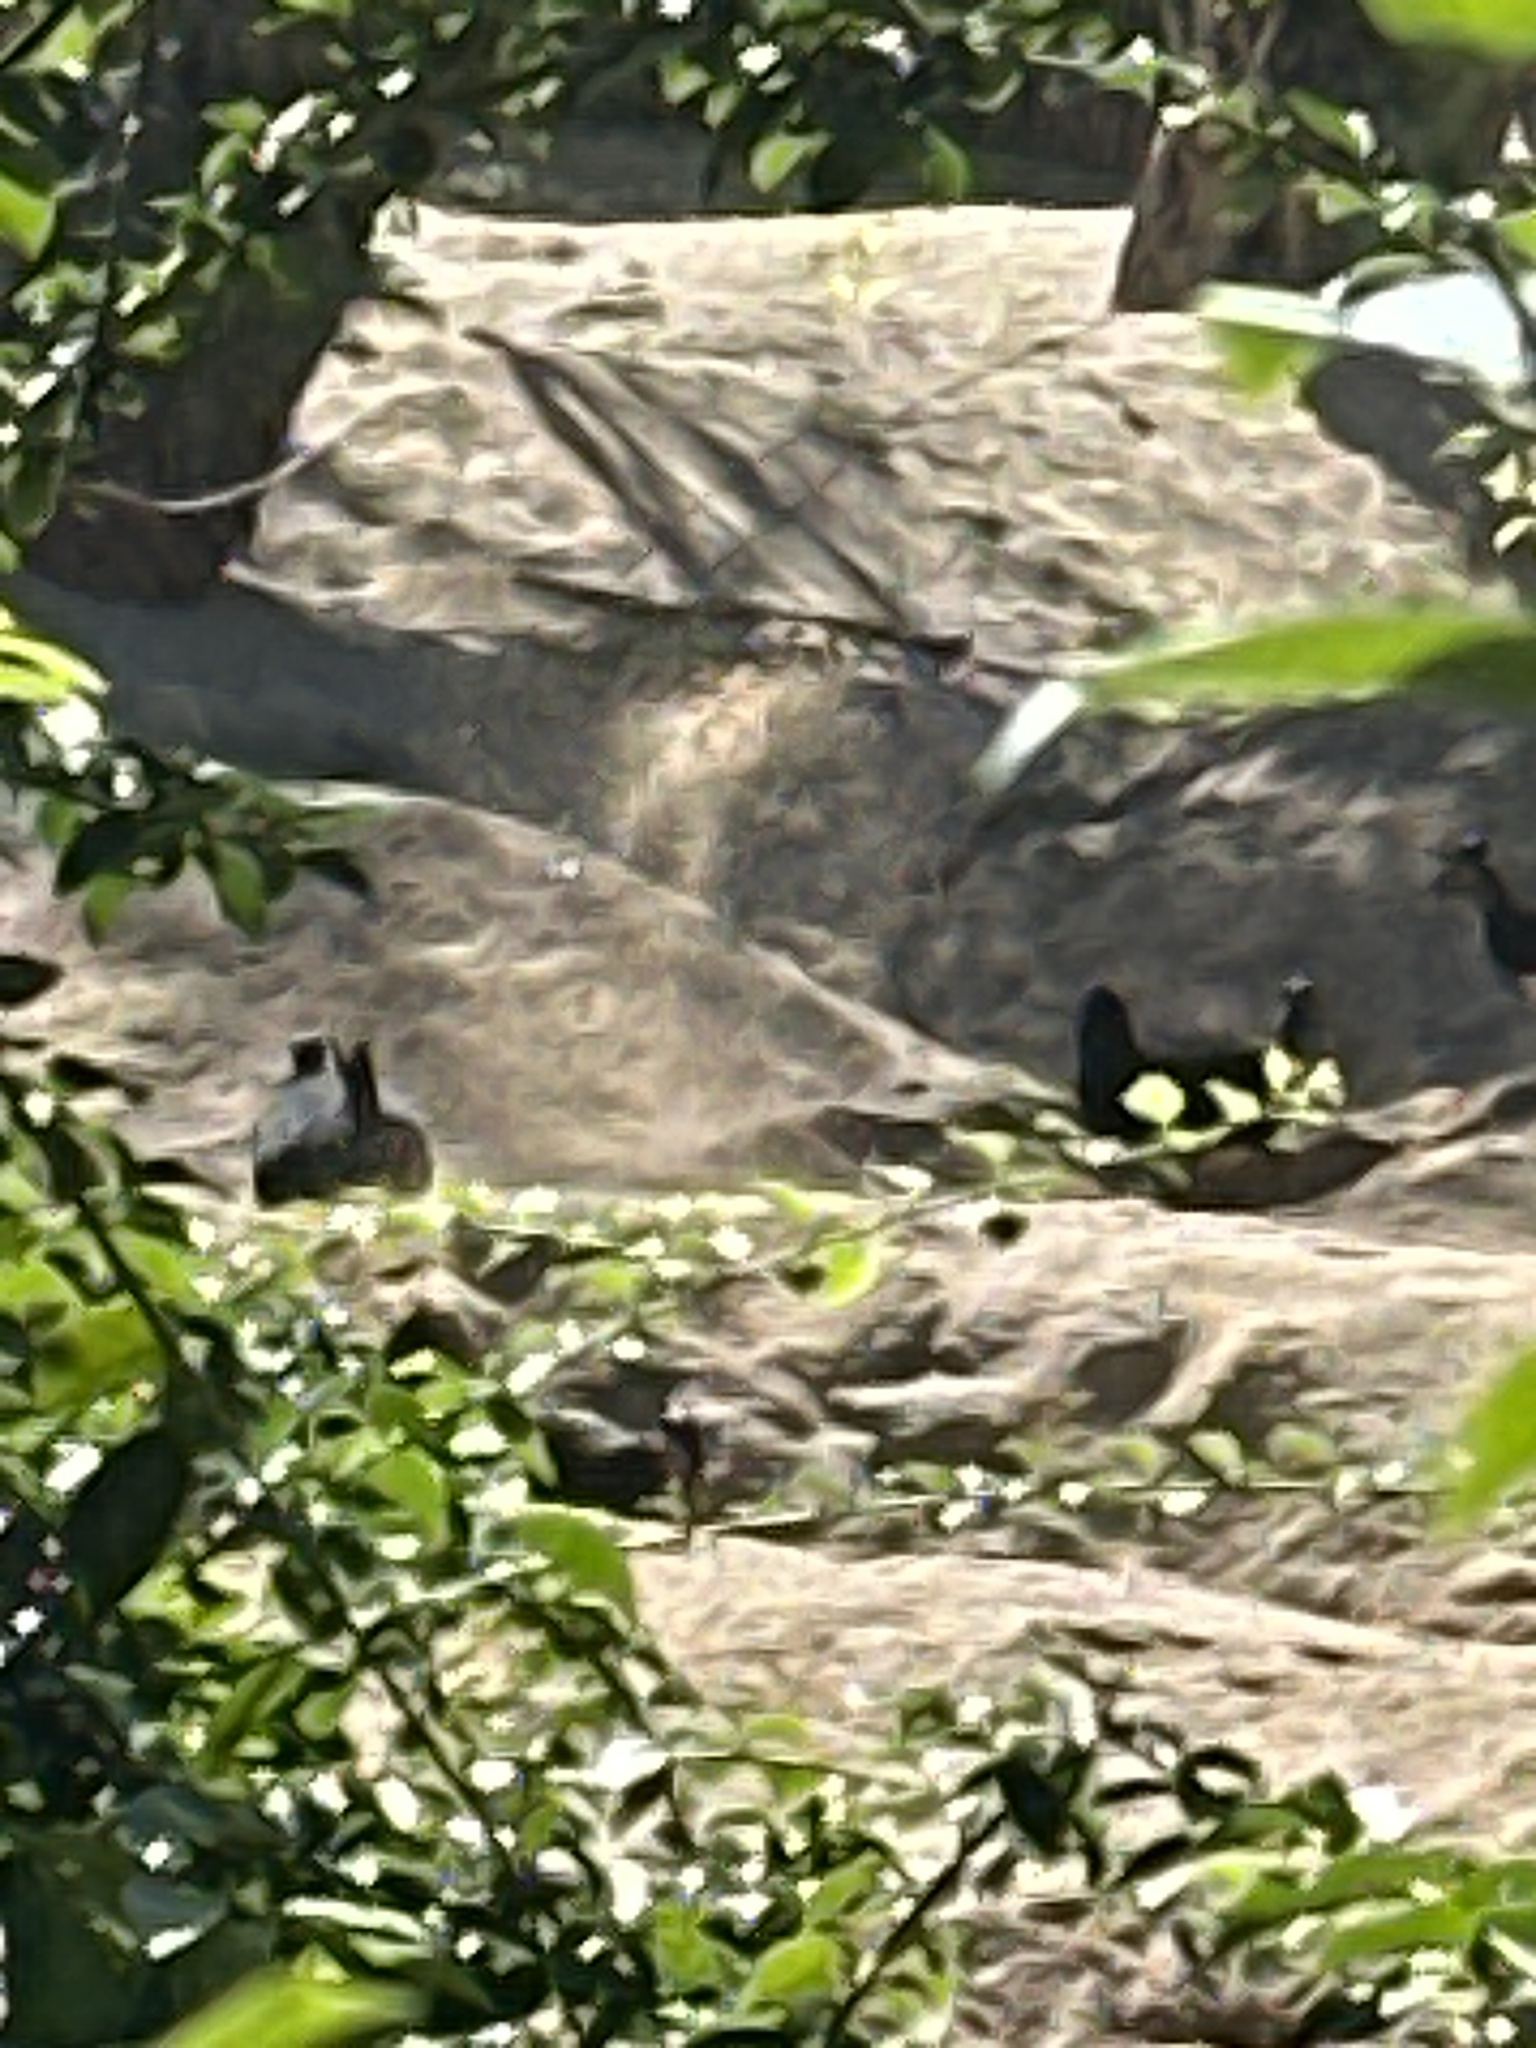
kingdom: Animalia
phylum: Chordata
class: Aves
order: Galliformes
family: Megapodiidae
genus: Macrocephalon
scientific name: Macrocephalon maleo
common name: Maleo
